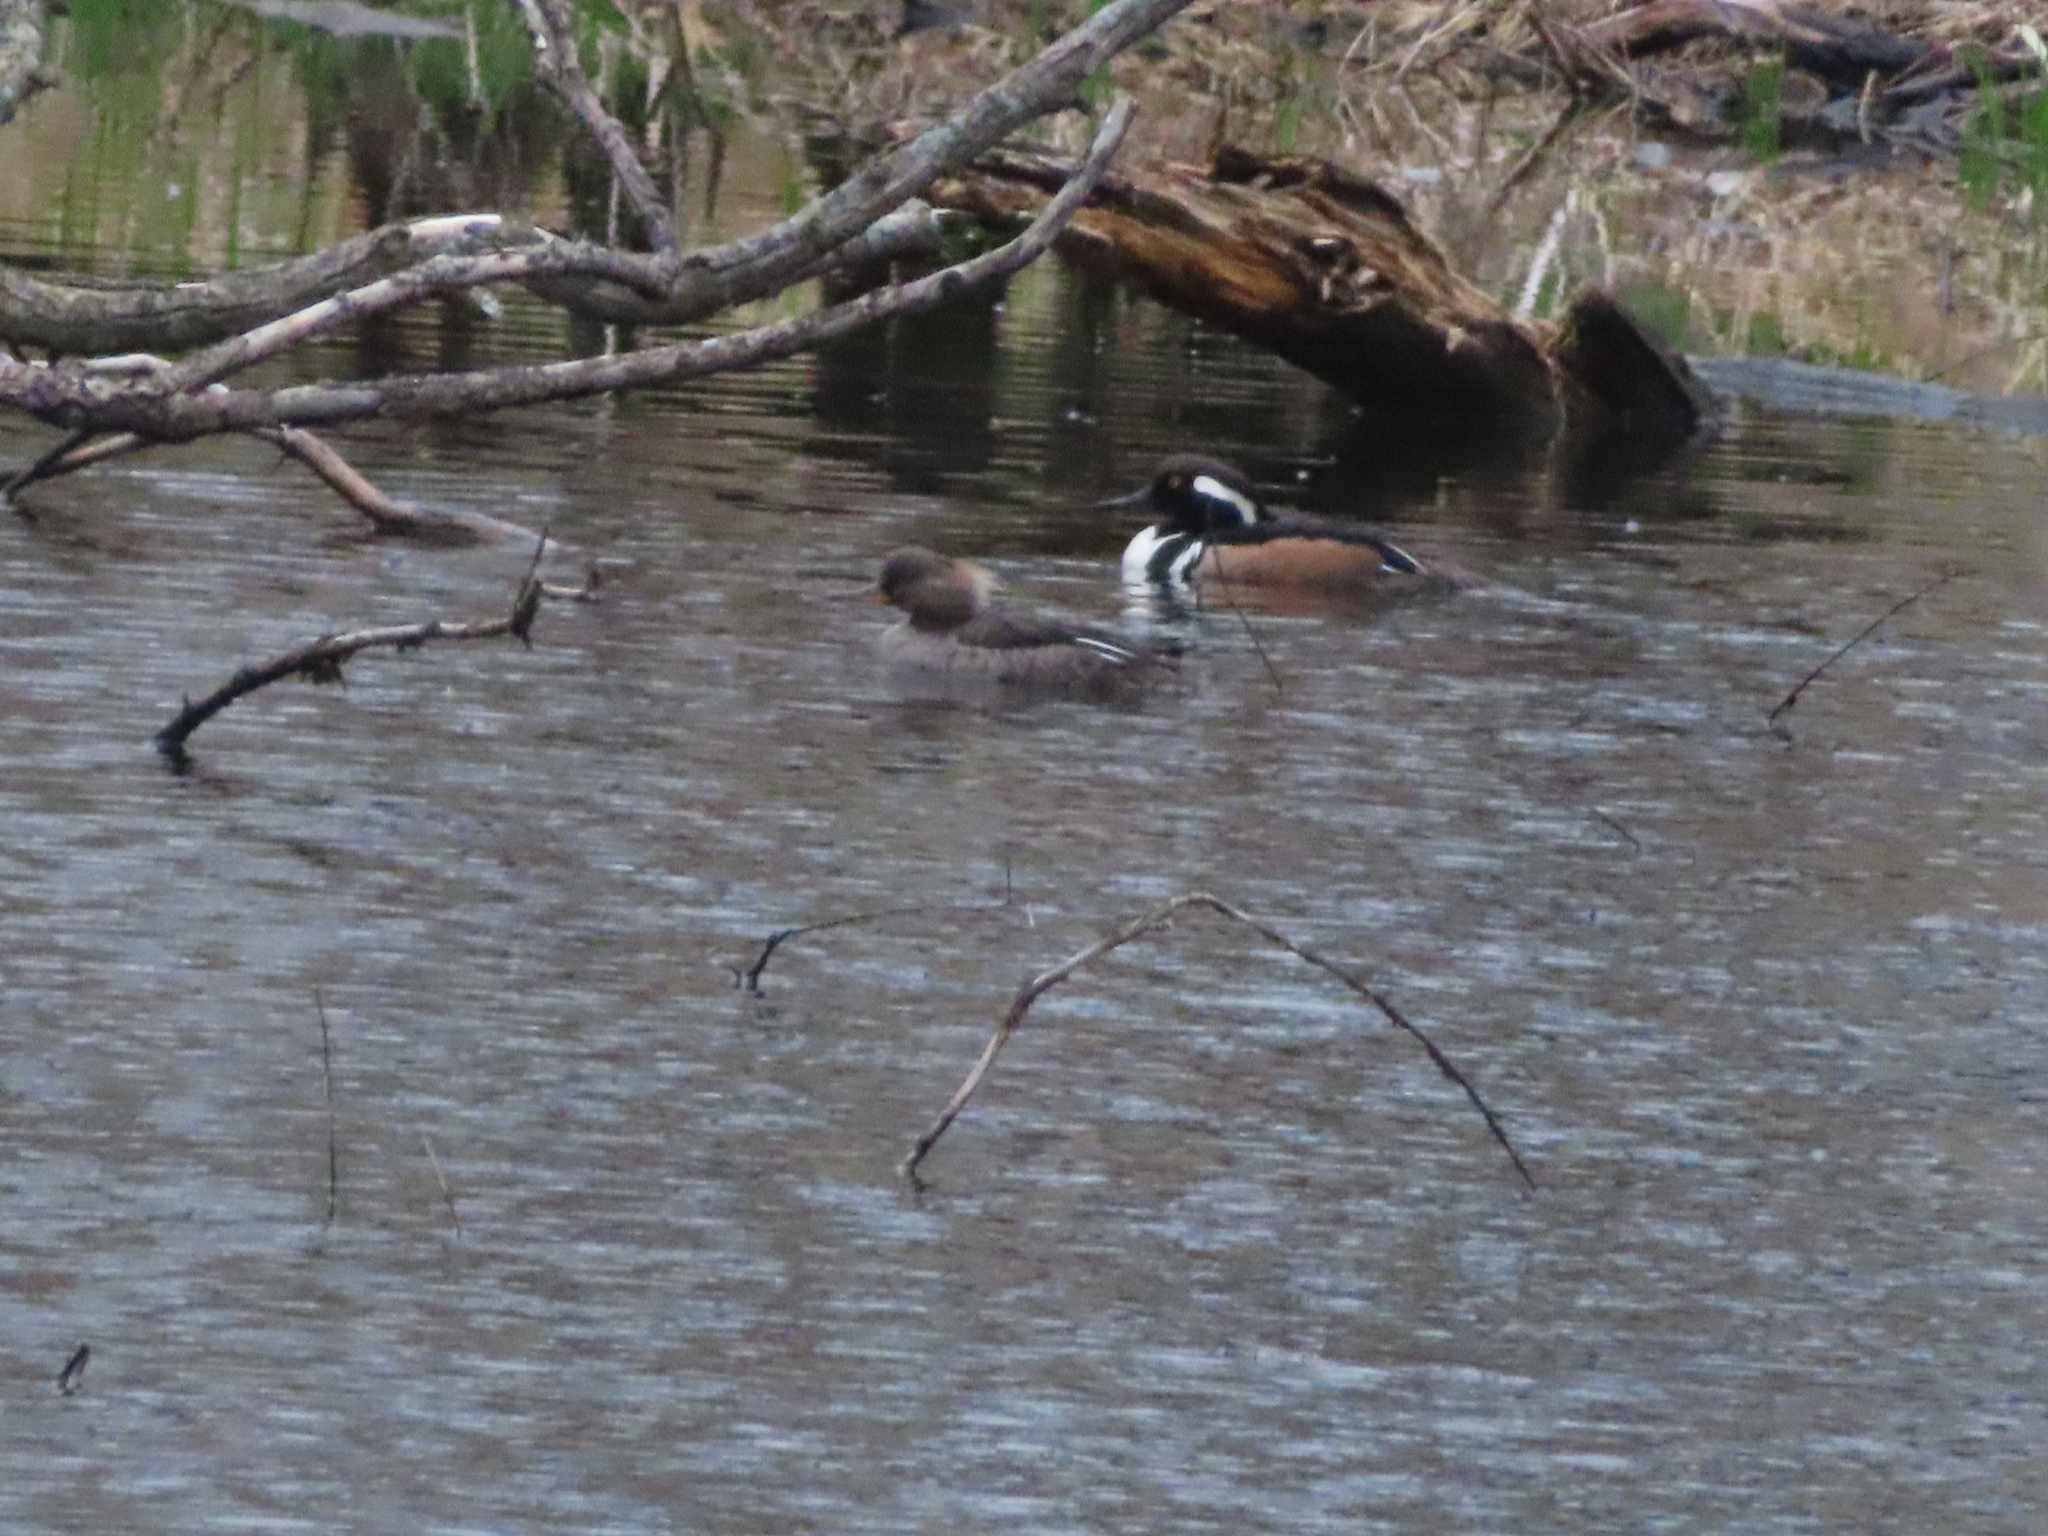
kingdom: Animalia
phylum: Chordata
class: Aves
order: Anseriformes
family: Anatidae
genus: Lophodytes
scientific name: Lophodytes cucullatus
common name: Hooded merganser
